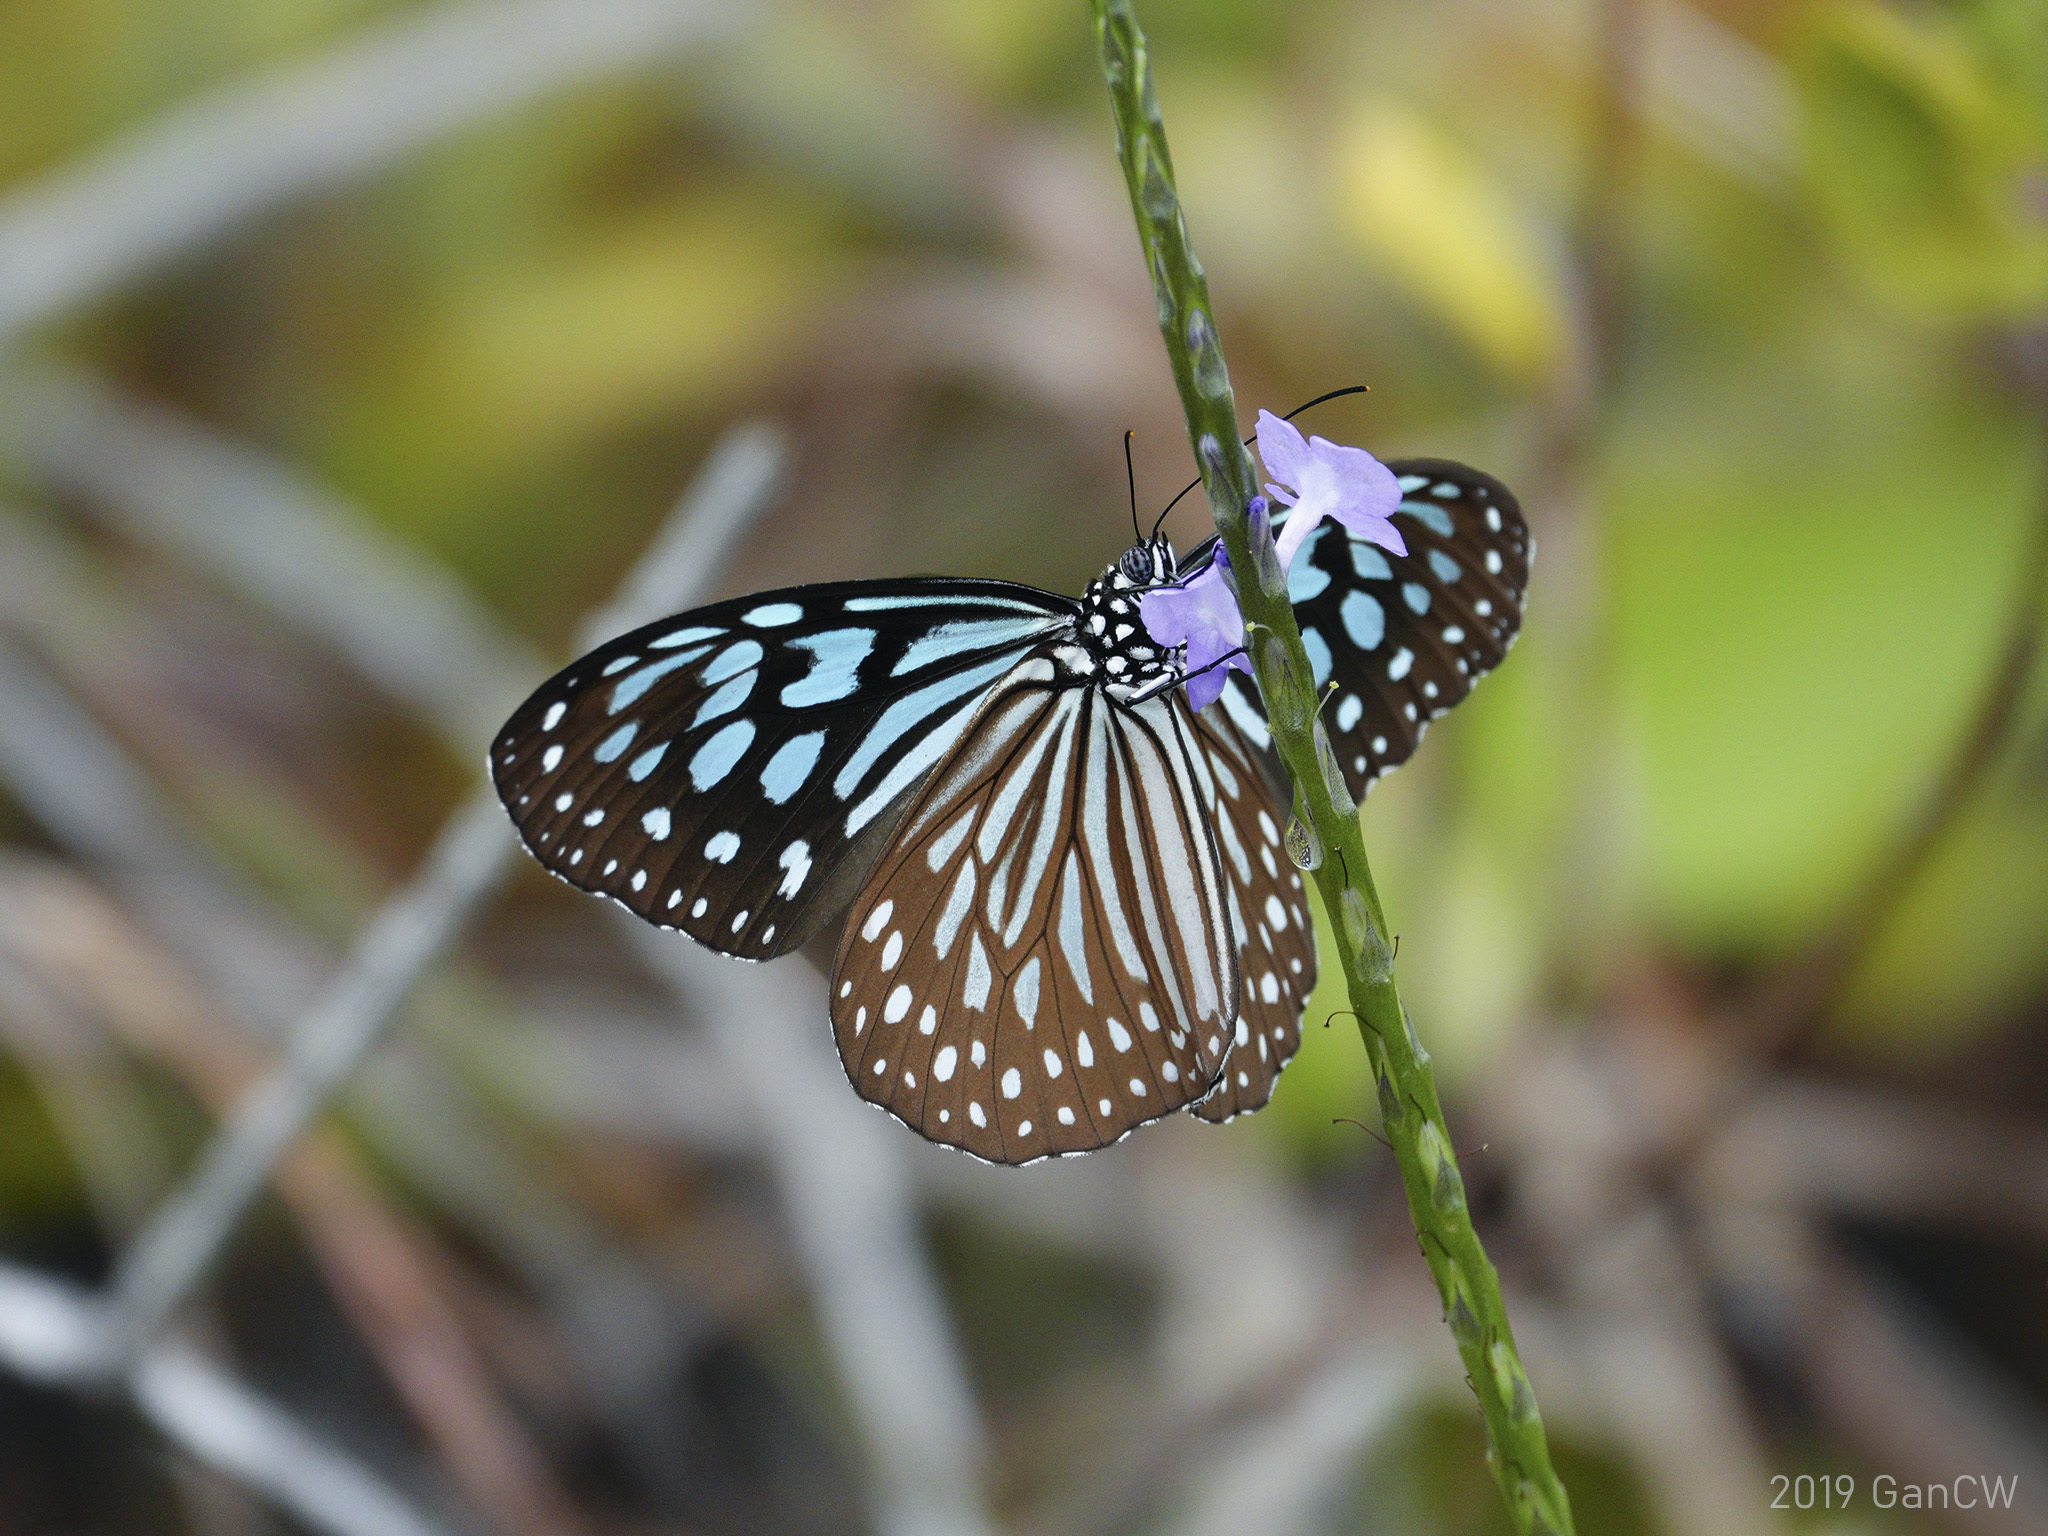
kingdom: Animalia
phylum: Arthropoda
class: Insecta
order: Lepidoptera
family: Nymphalidae
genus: Ideopsis
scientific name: Ideopsis similis
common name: Ceylon blue glassy tiger
